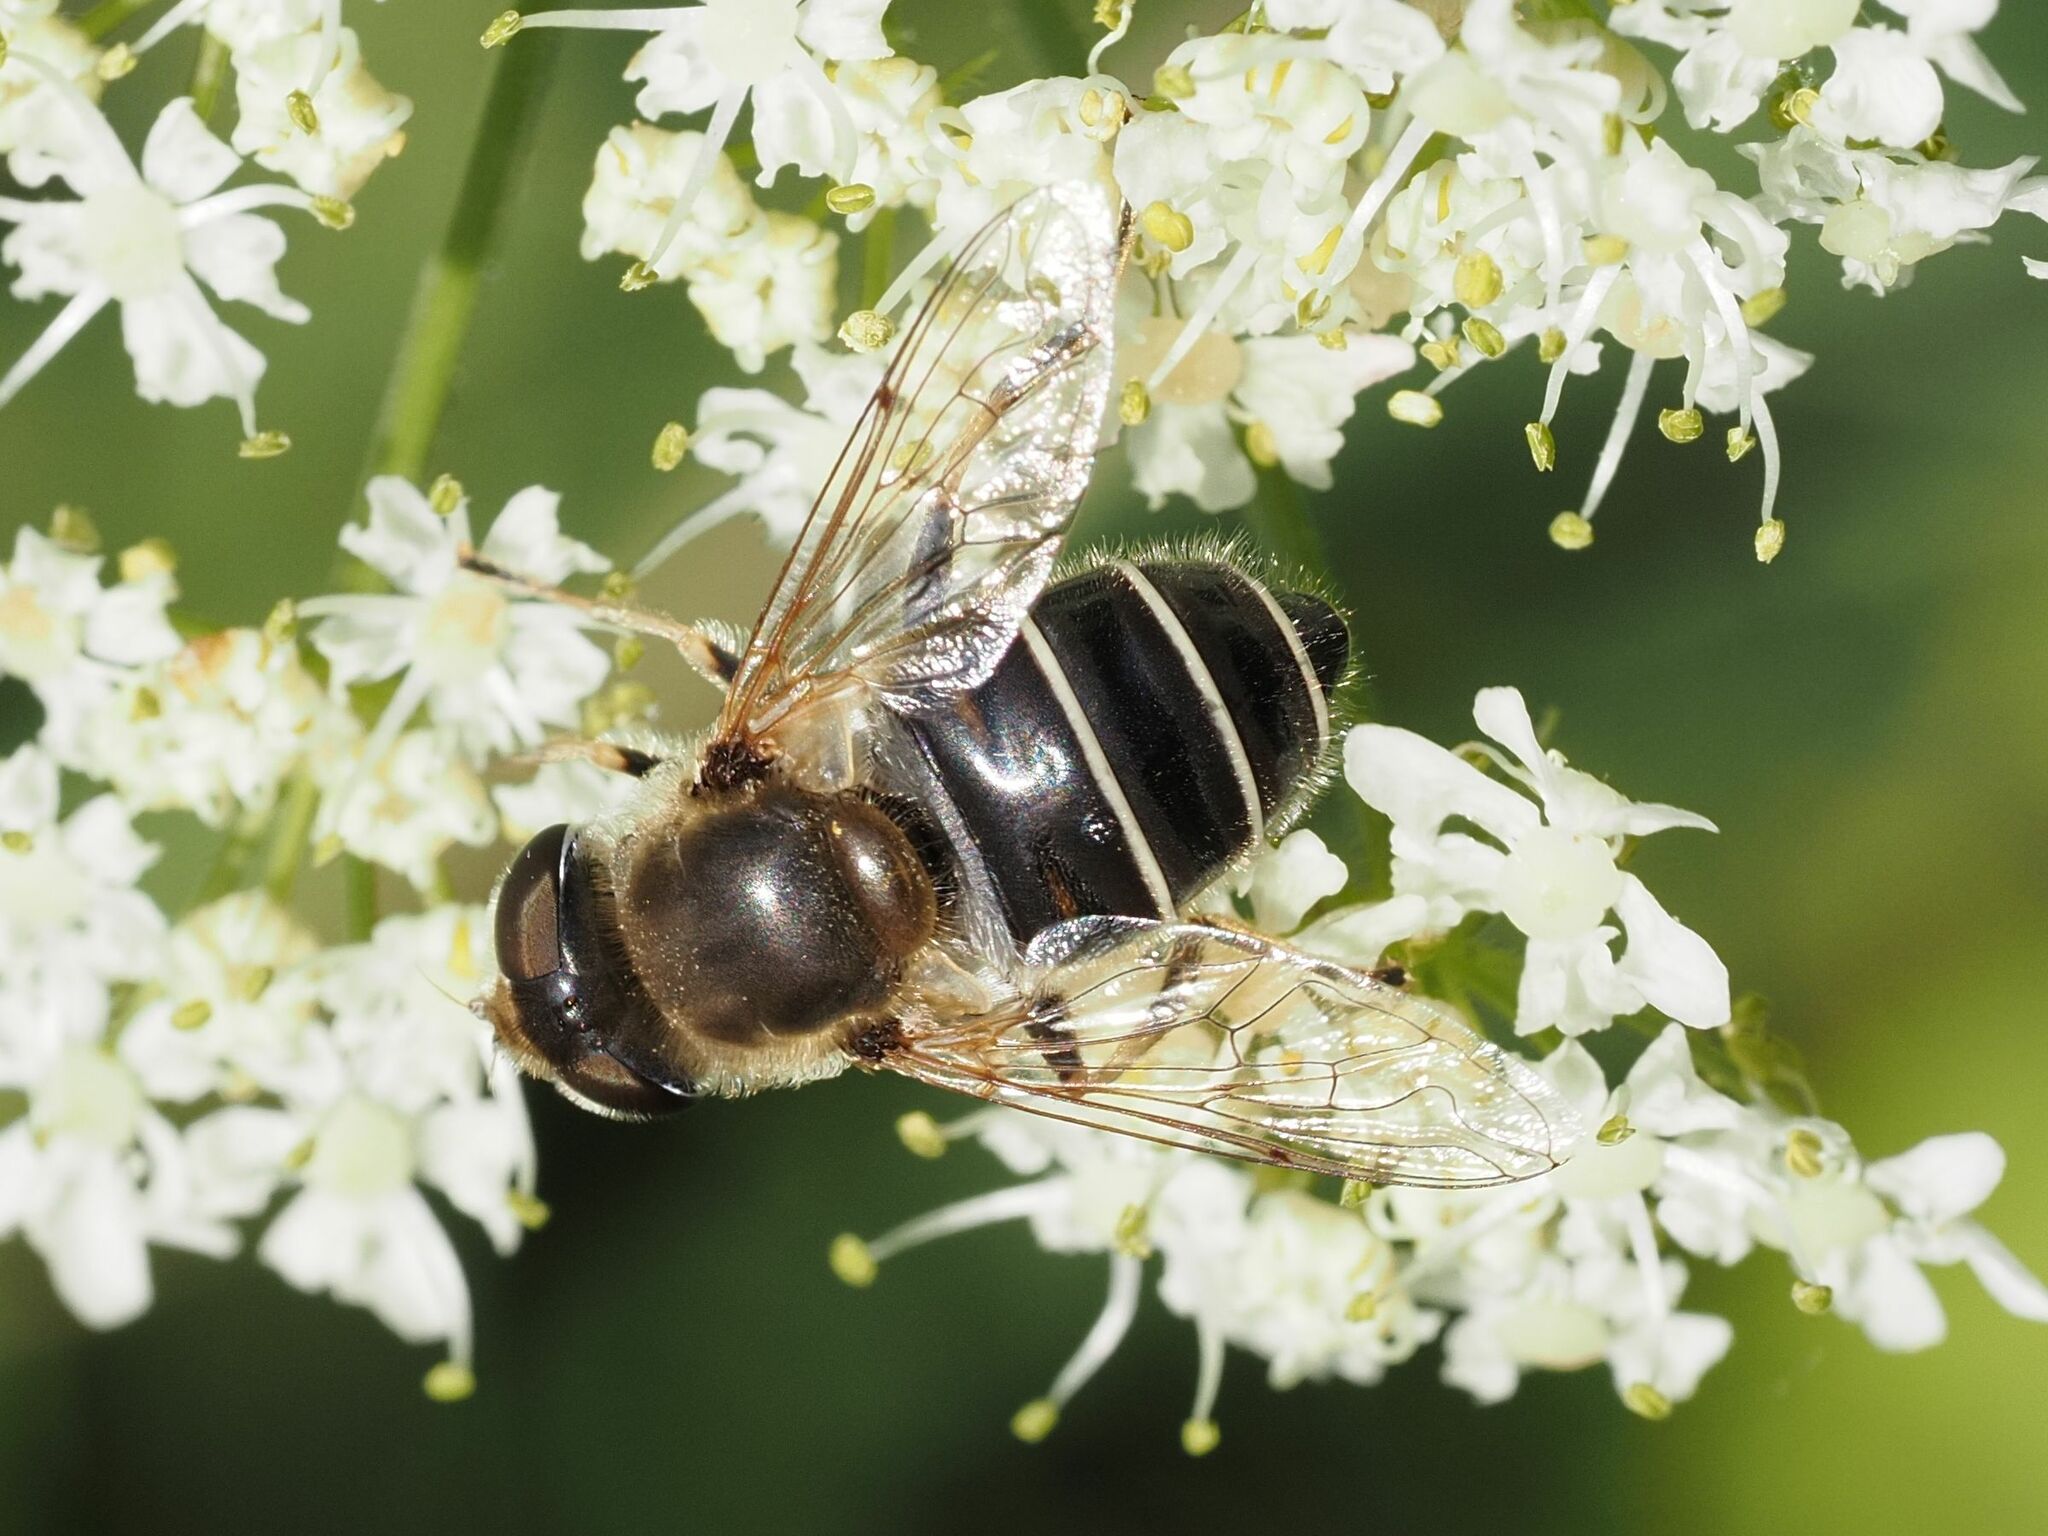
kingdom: Animalia
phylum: Arthropoda
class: Insecta
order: Diptera
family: Syrphidae
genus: Eristalis
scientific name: Eristalis nemorum
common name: Orange-spined drone fly
